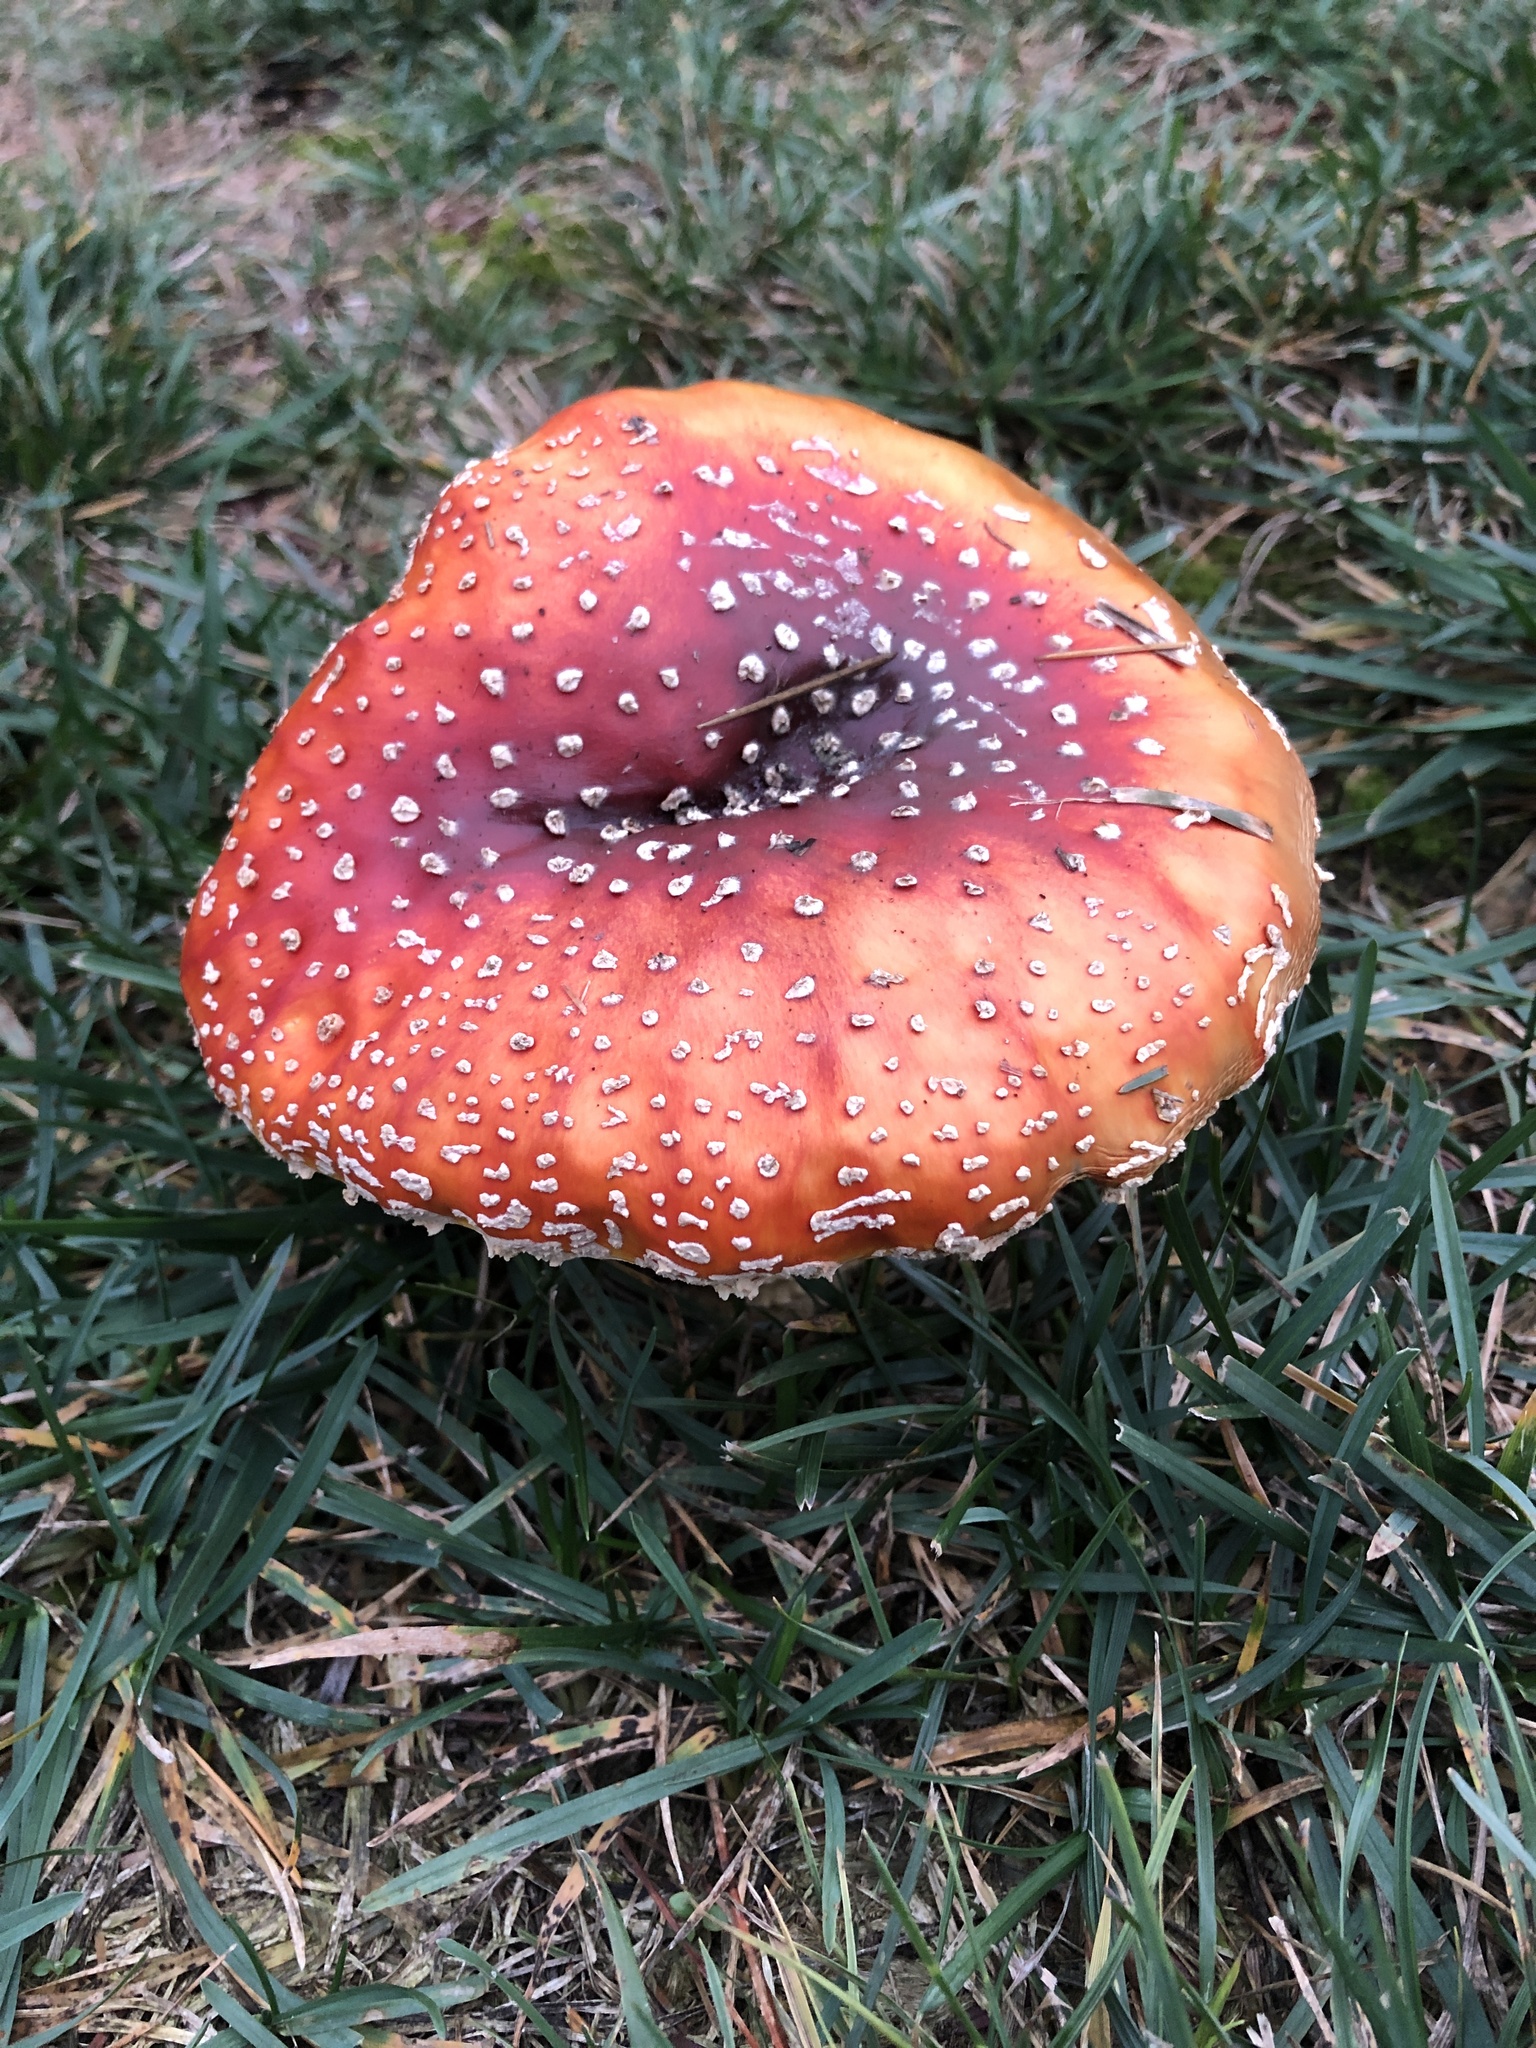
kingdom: Fungi
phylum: Basidiomycota
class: Agaricomycetes
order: Agaricales
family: Amanitaceae
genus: Amanita
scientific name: Amanita muscaria
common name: Fly agaric
